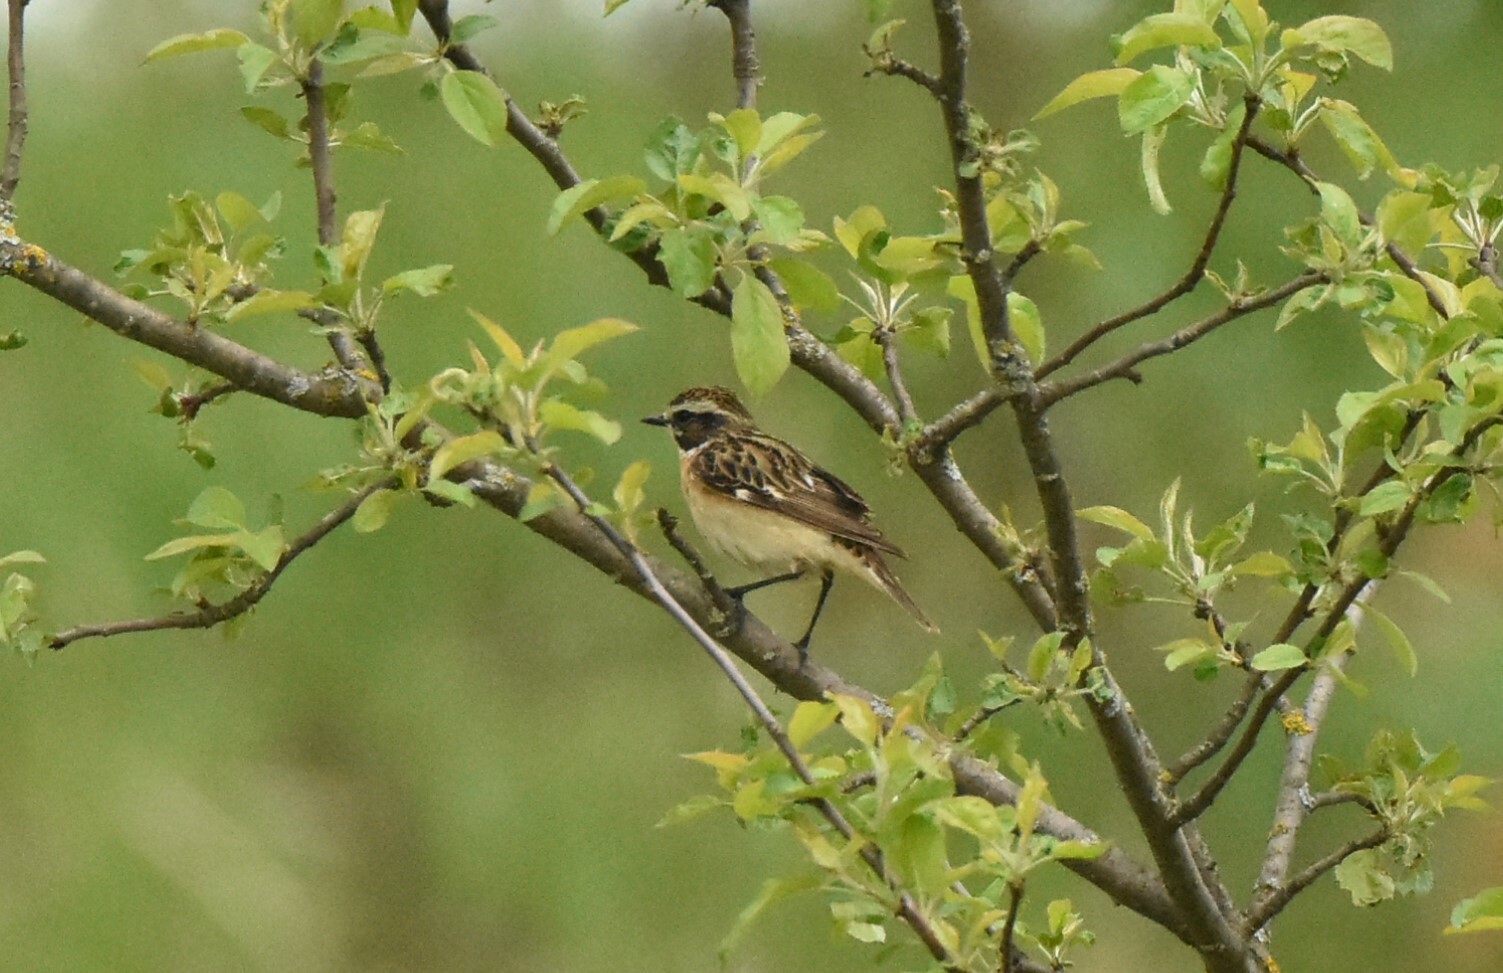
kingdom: Animalia
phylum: Chordata
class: Aves
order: Passeriformes
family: Muscicapidae
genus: Saxicola
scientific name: Saxicola rubetra
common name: Whinchat
